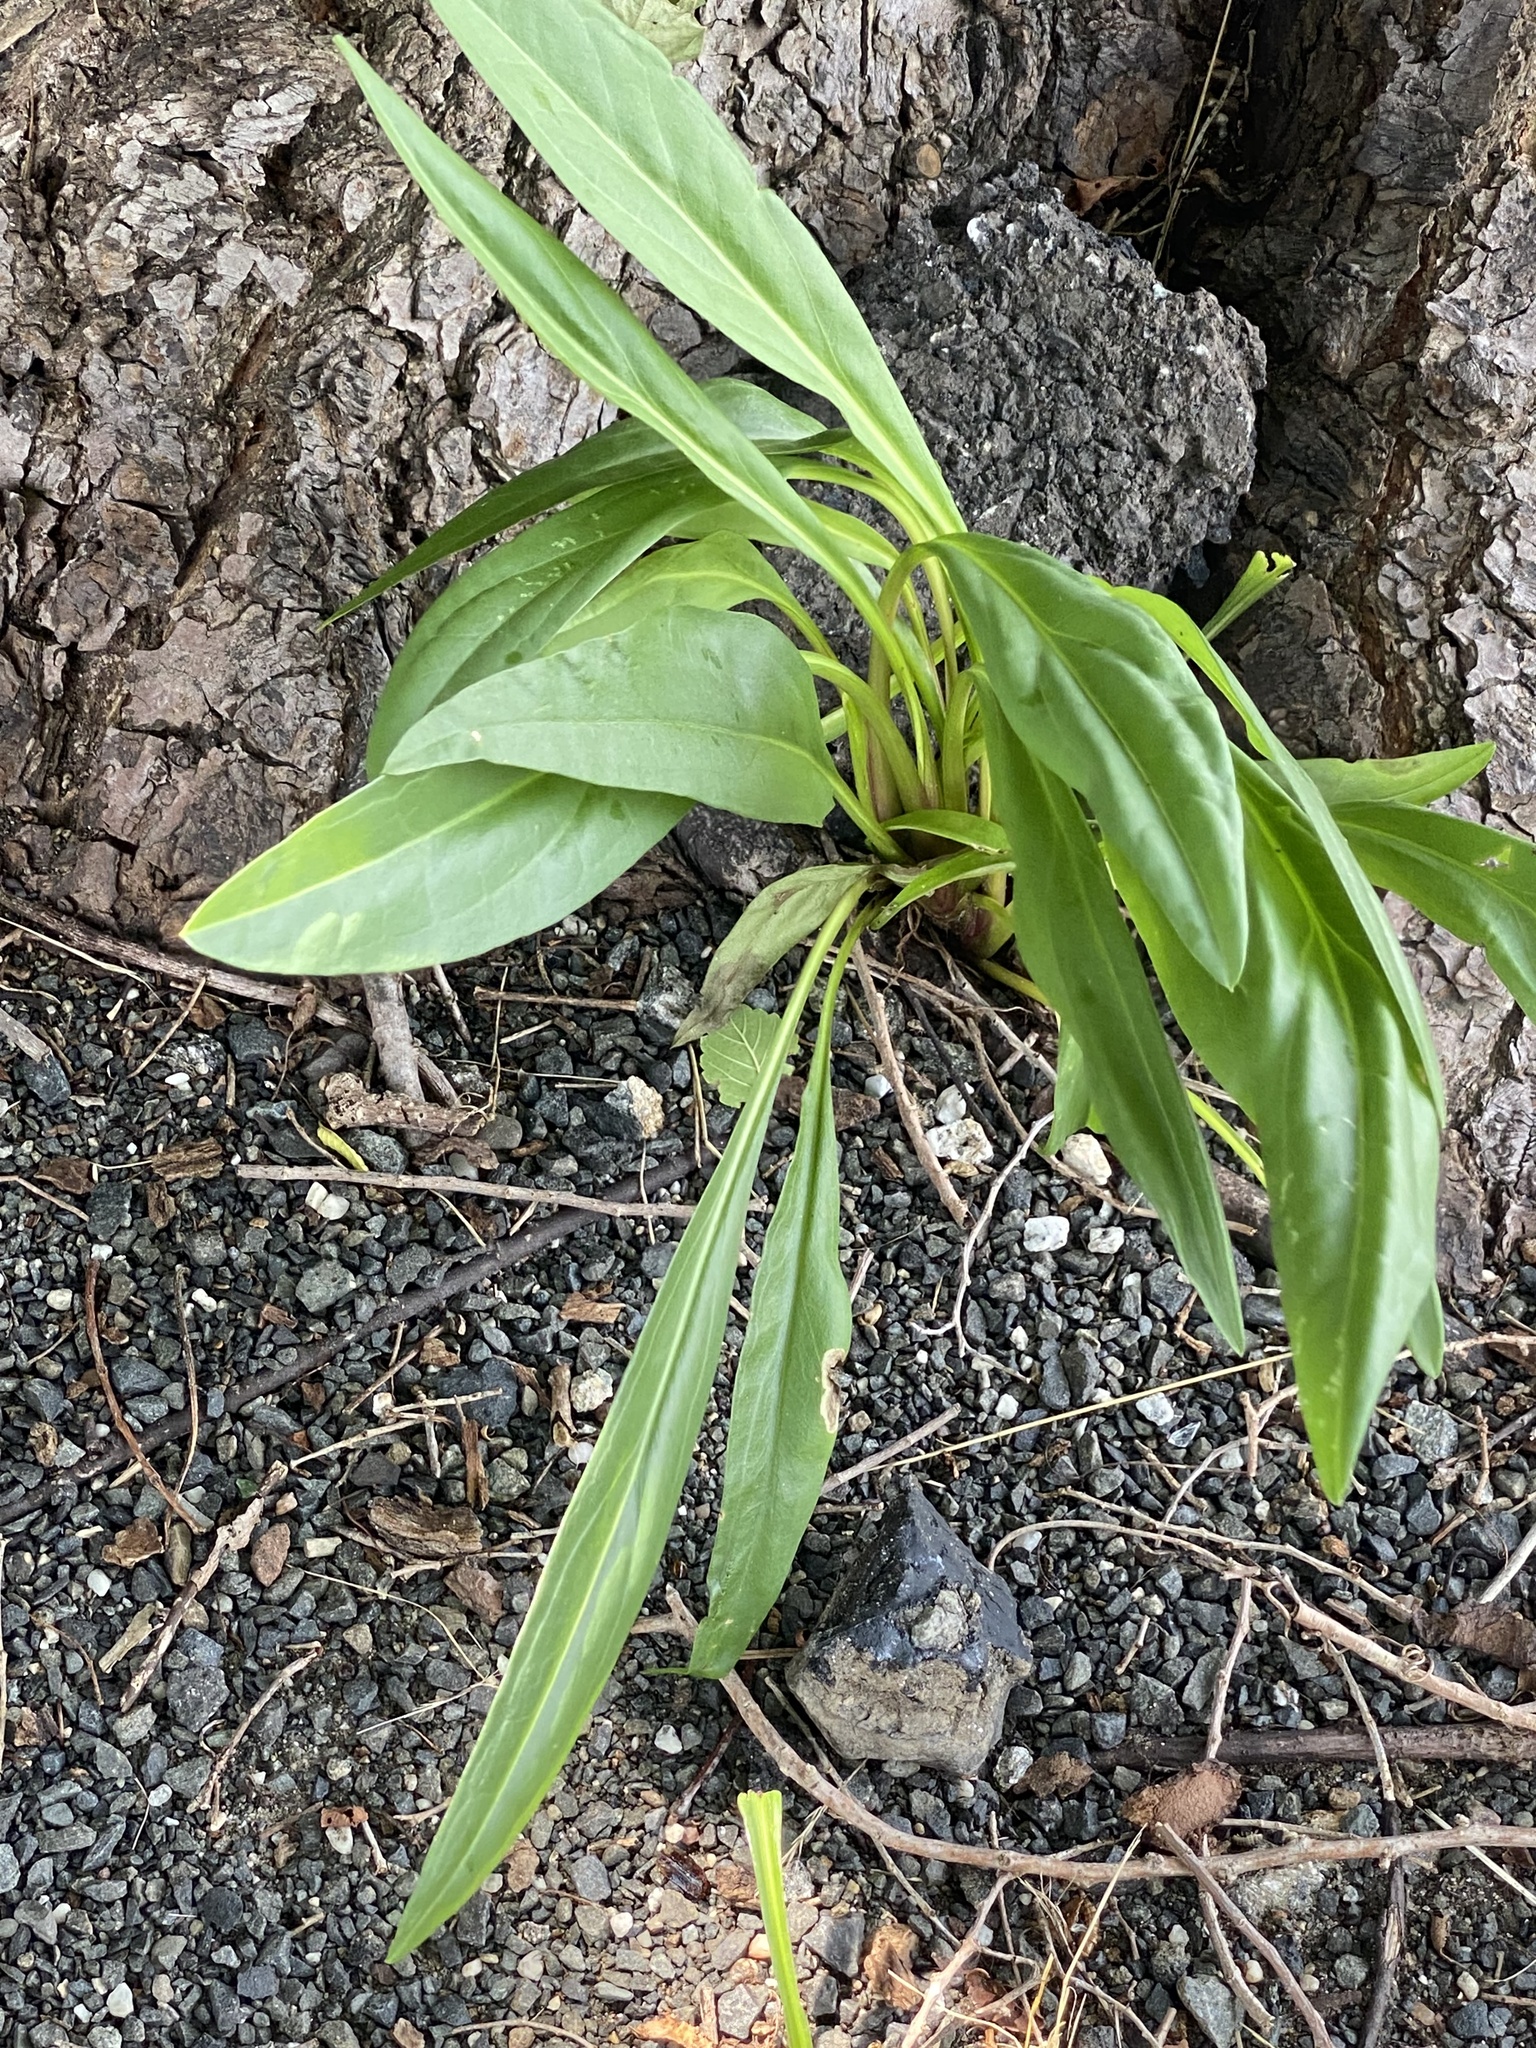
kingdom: Plantae
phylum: Tracheophyta
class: Magnoliopsida
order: Asterales
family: Asteraceae
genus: Solidago
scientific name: Solidago sempervirens
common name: Salt-marsh goldenrod
